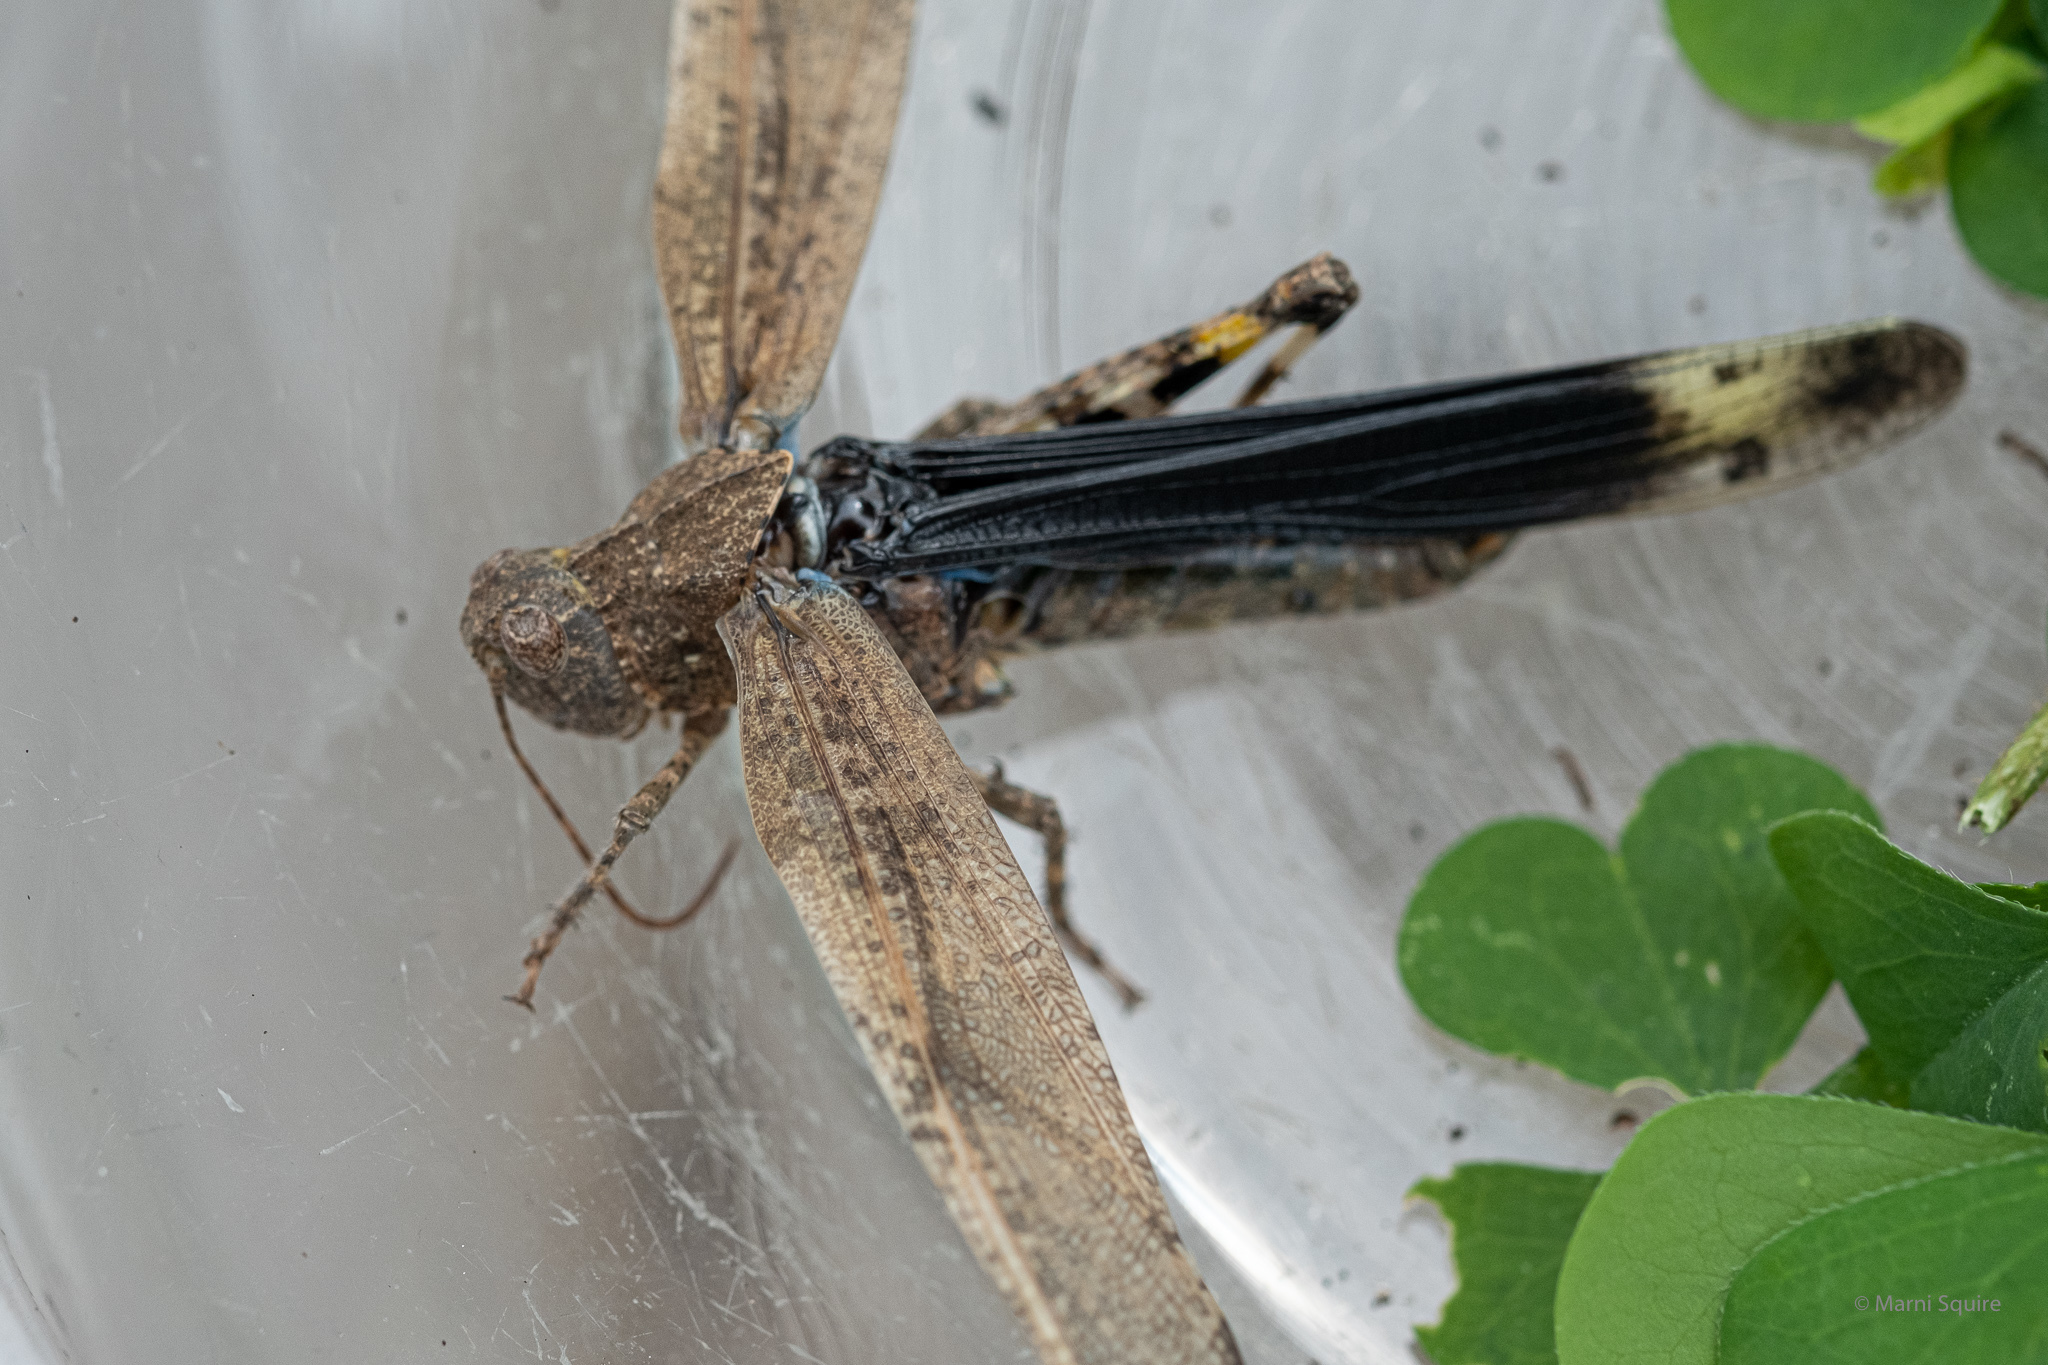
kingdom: Animalia
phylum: Arthropoda
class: Insecta
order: Orthoptera
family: Acrididae
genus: Dissosteira
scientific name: Dissosteira carolina
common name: Carolina grasshopper
